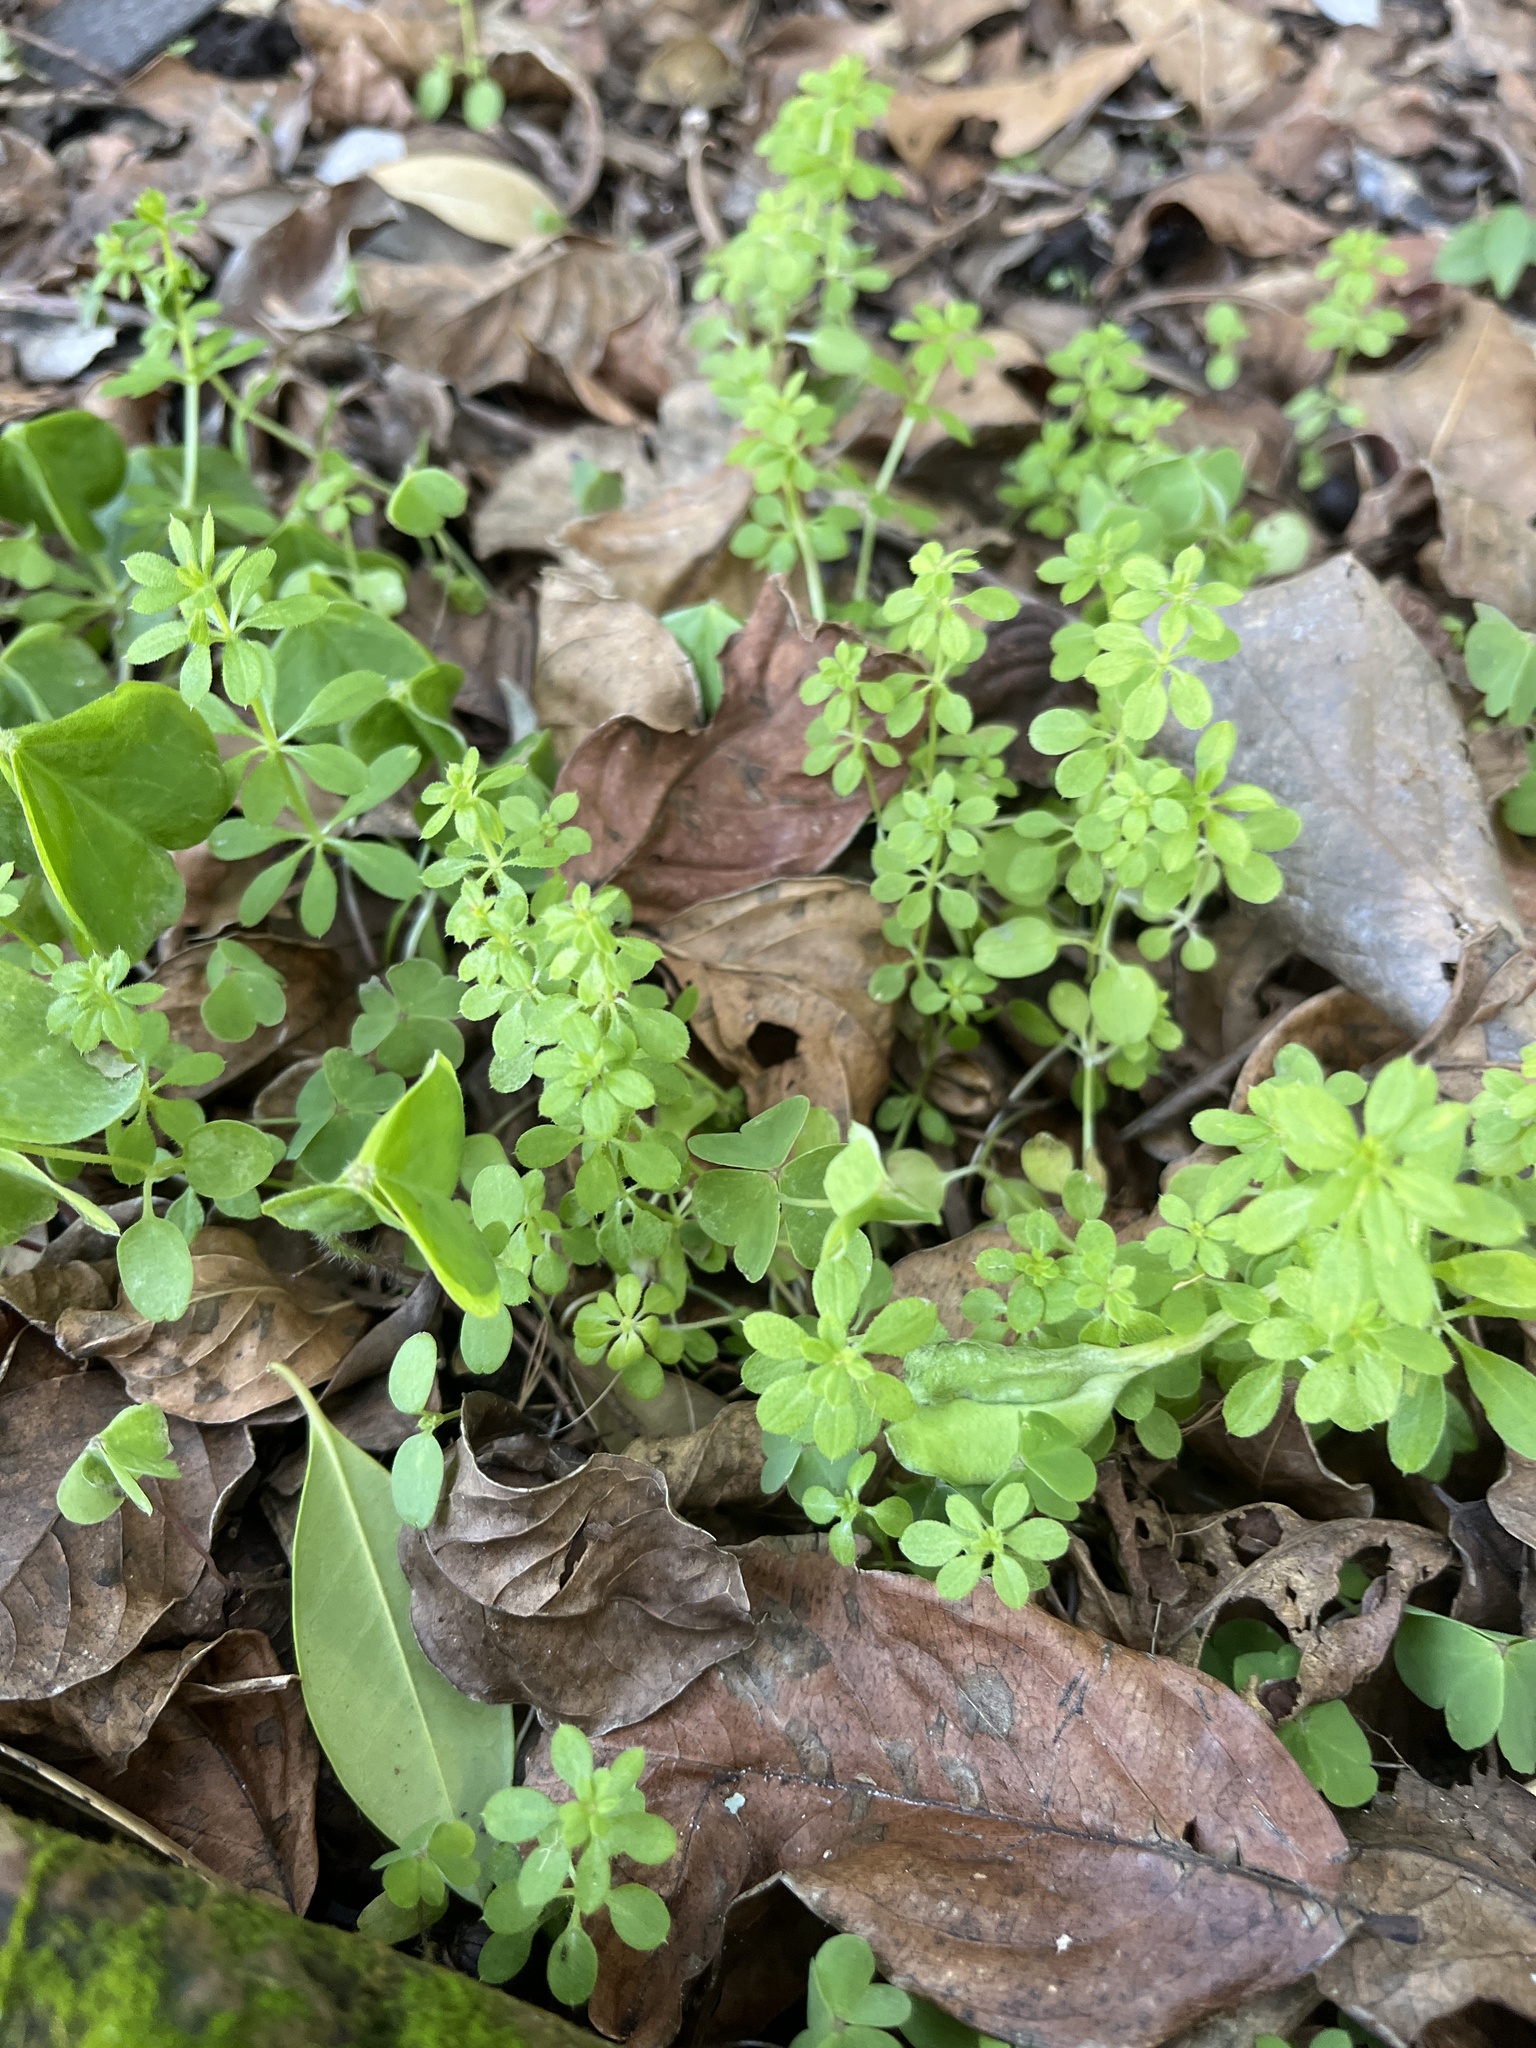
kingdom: Plantae
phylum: Tracheophyta
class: Magnoliopsida
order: Gentianales
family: Rubiaceae
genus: Galium
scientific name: Galium aparine
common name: Cleavers
